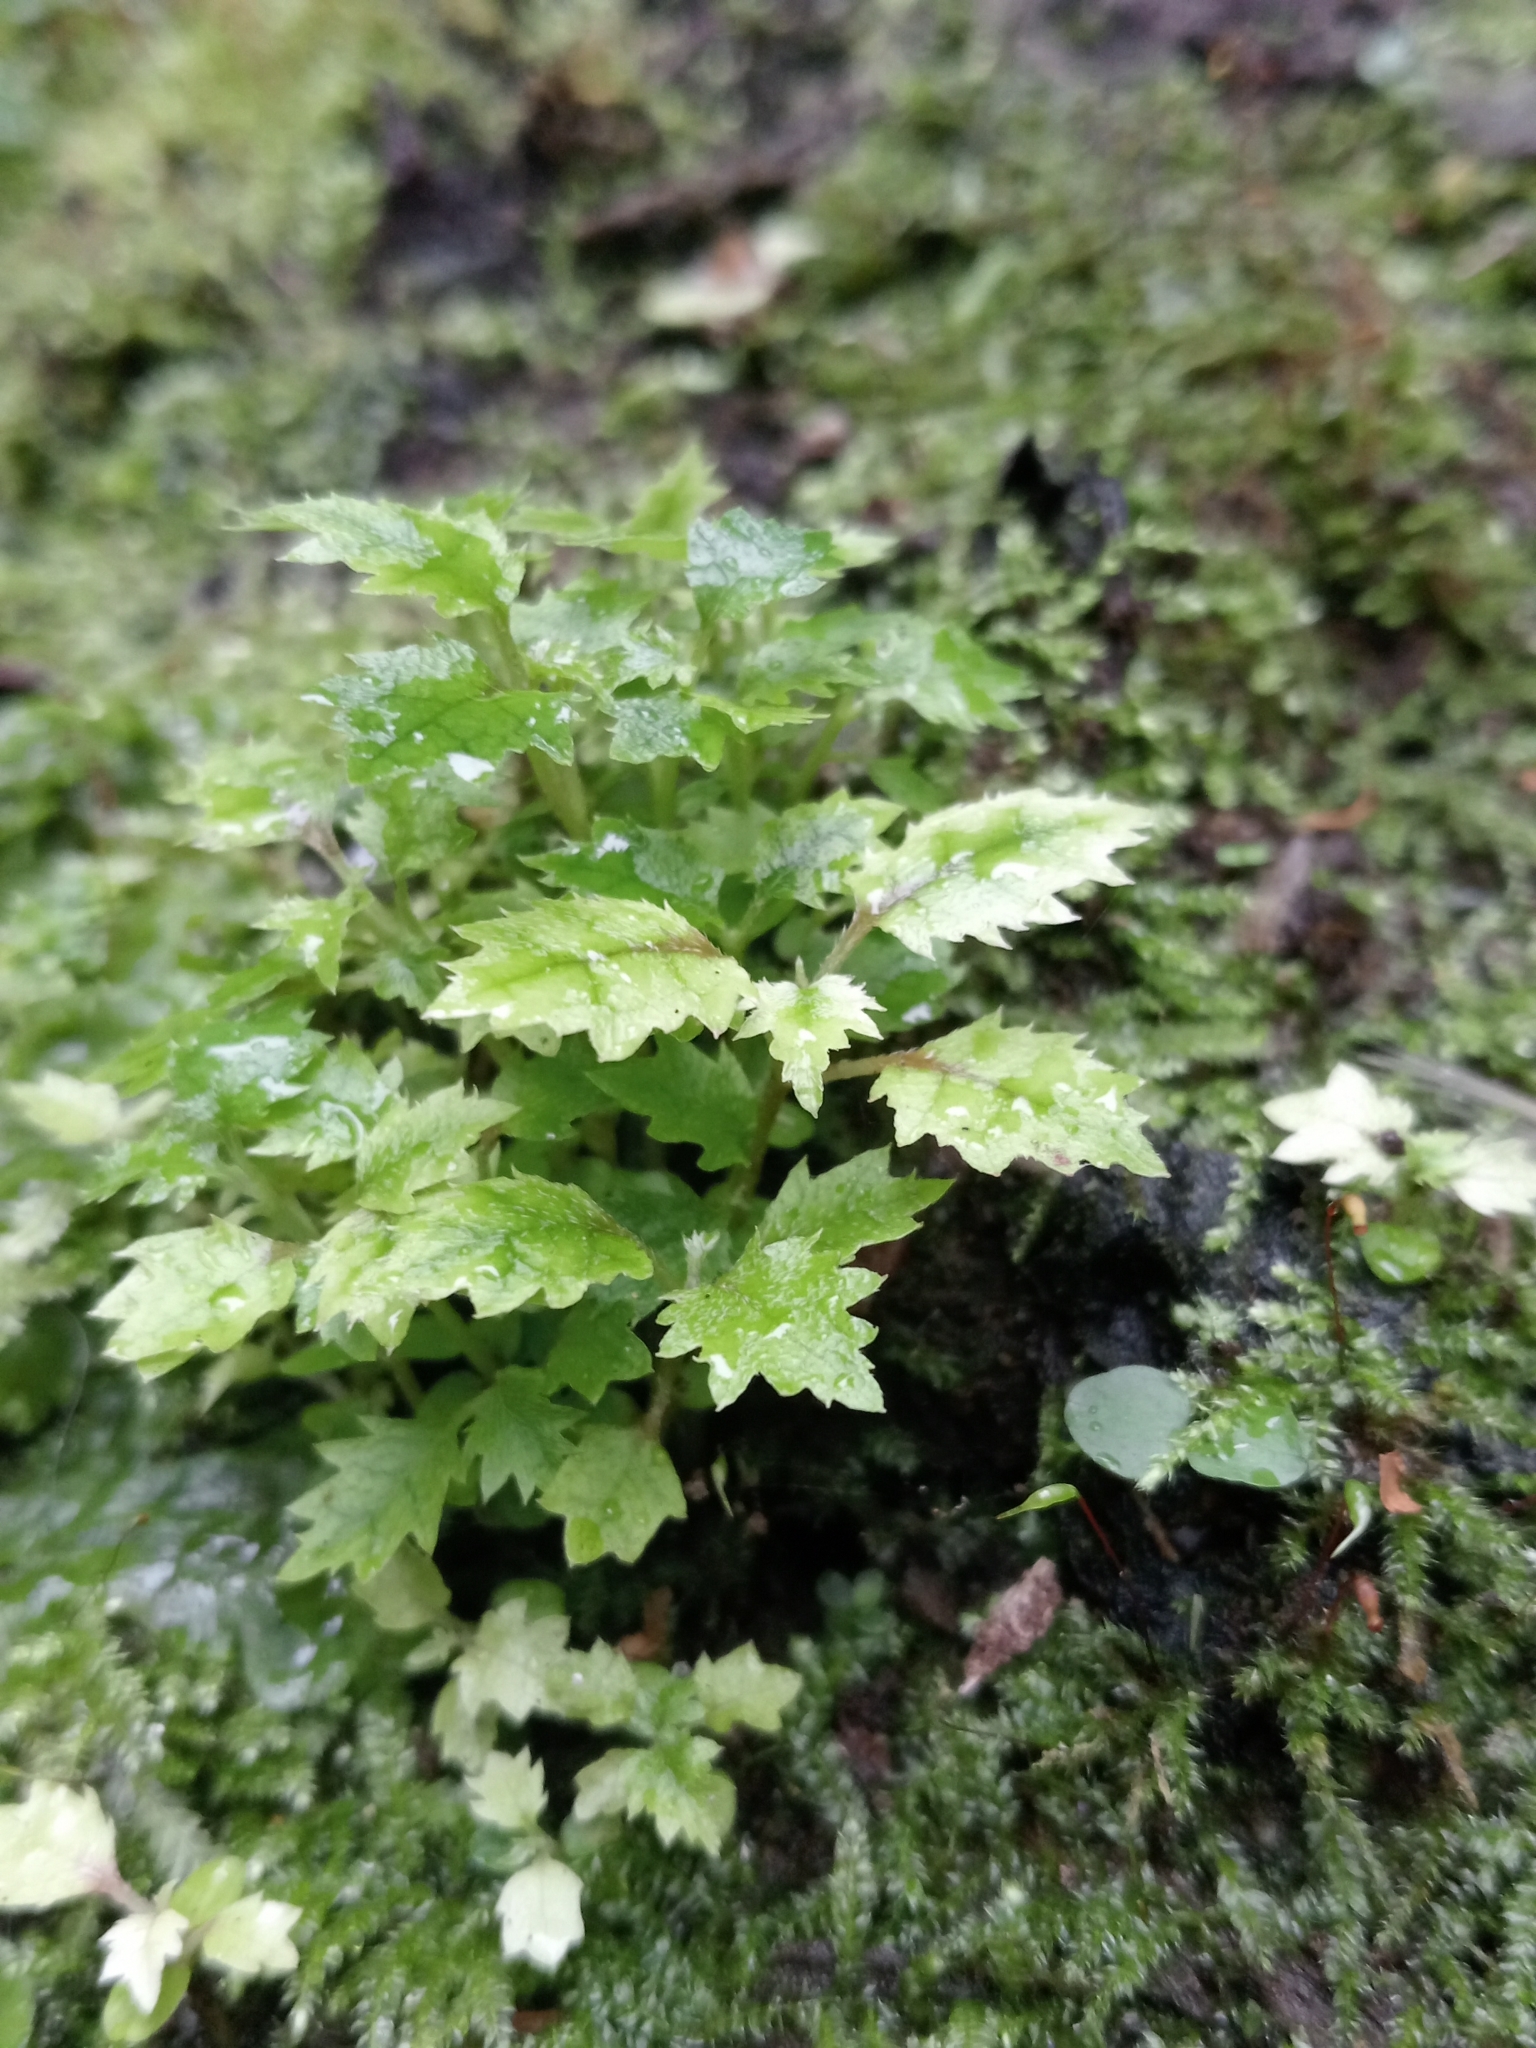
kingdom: Plantae
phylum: Tracheophyta
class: Magnoliopsida
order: Asterales
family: Rousseaceae
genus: Carpodetus
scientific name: Carpodetus serratus
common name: White mapau
